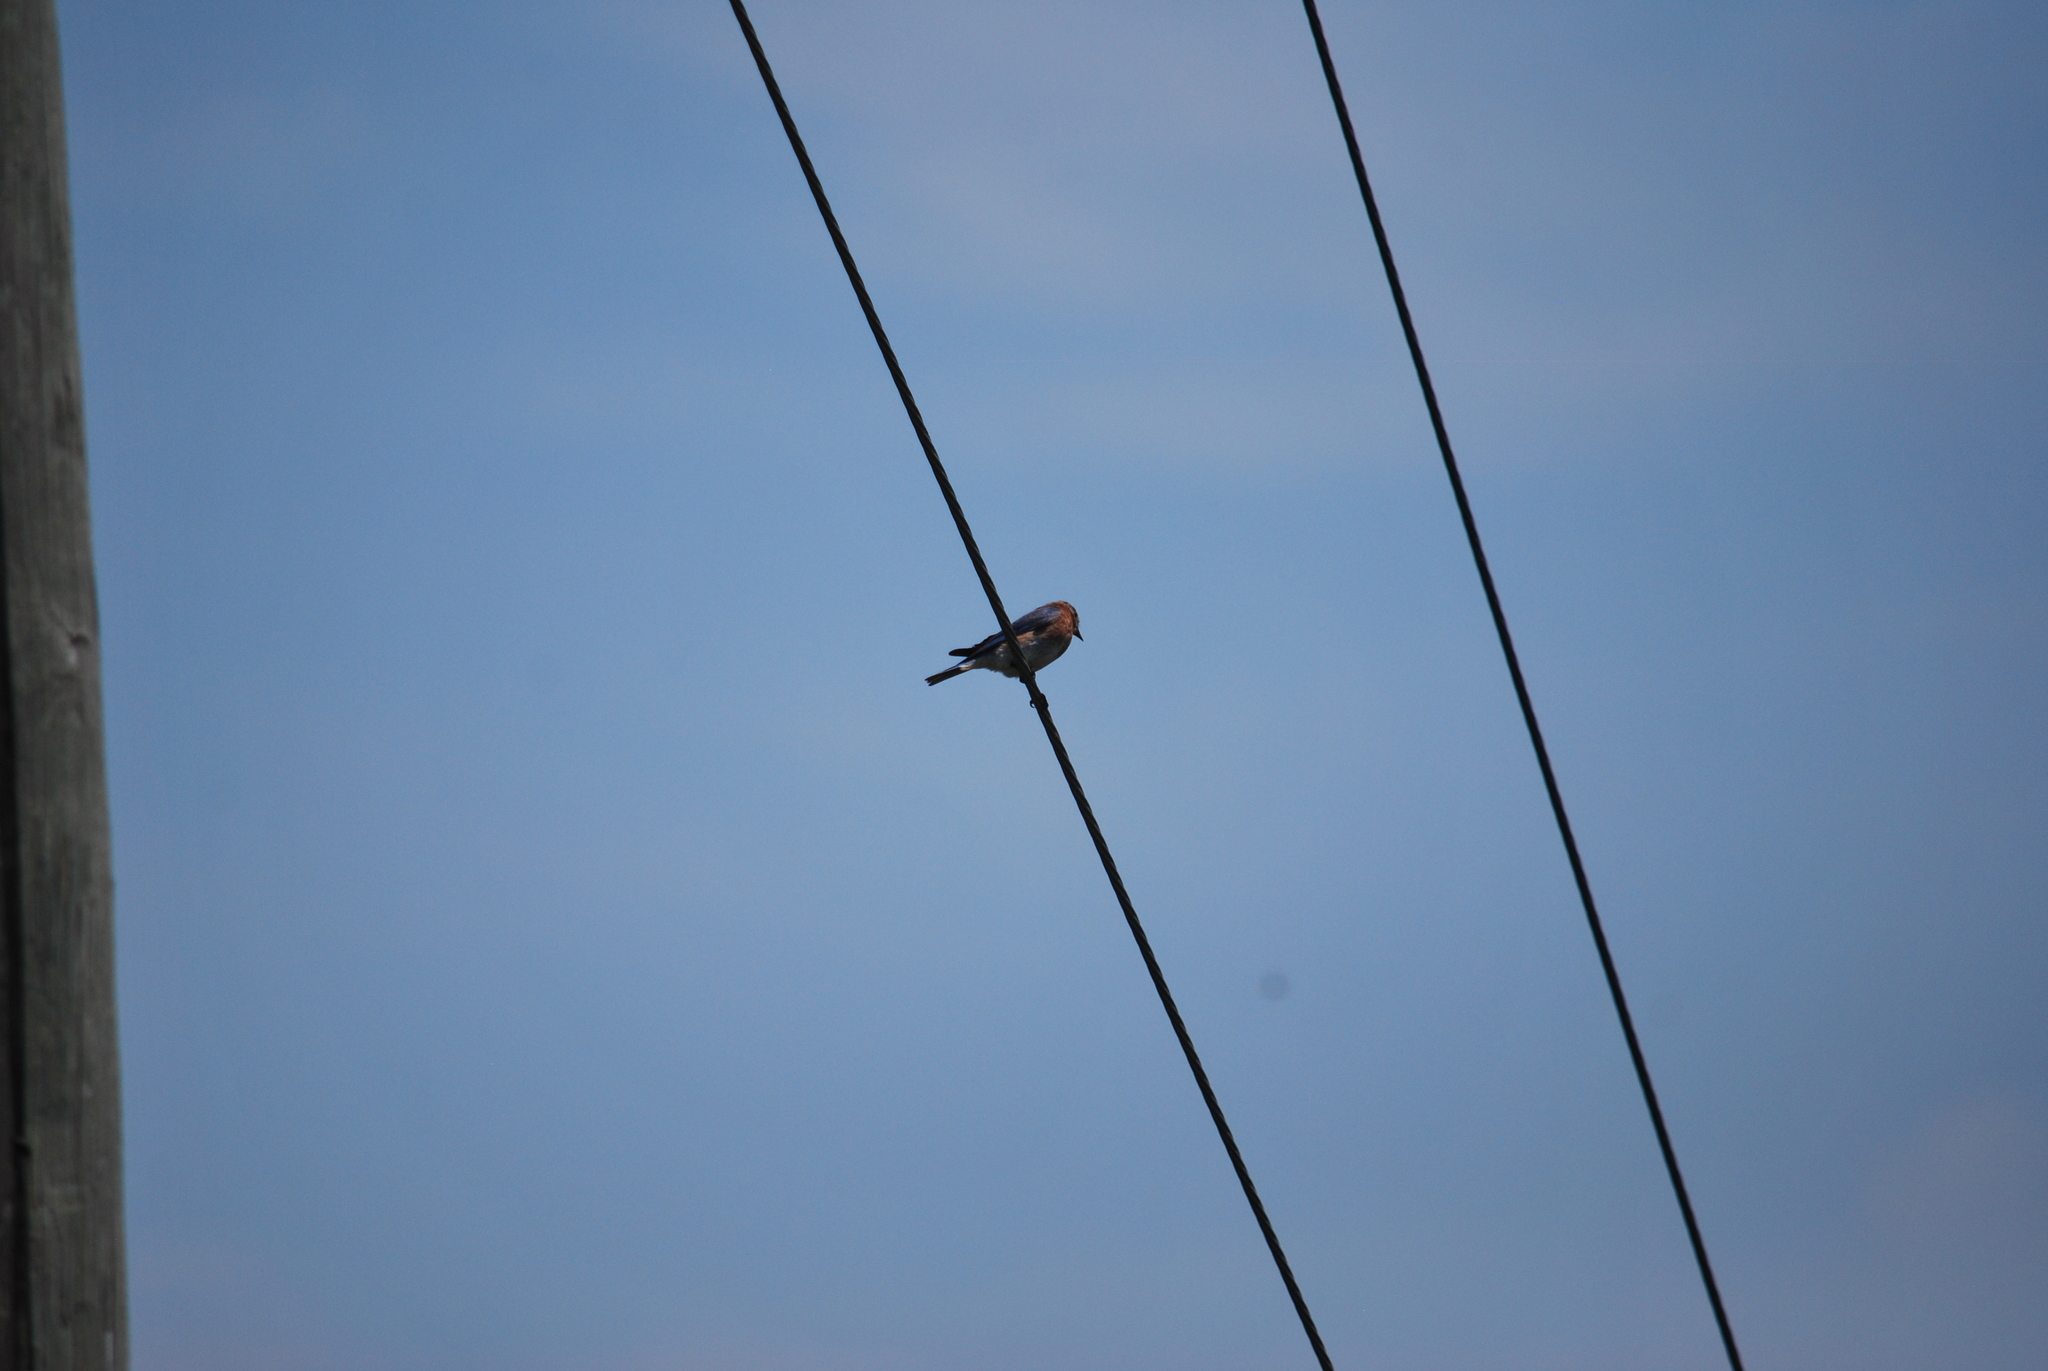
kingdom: Animalia
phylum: Chordata
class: Aves
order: Passeriformes
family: Turdidae
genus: Sialia
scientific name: Sialia sialis
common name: Eastern bluebird
